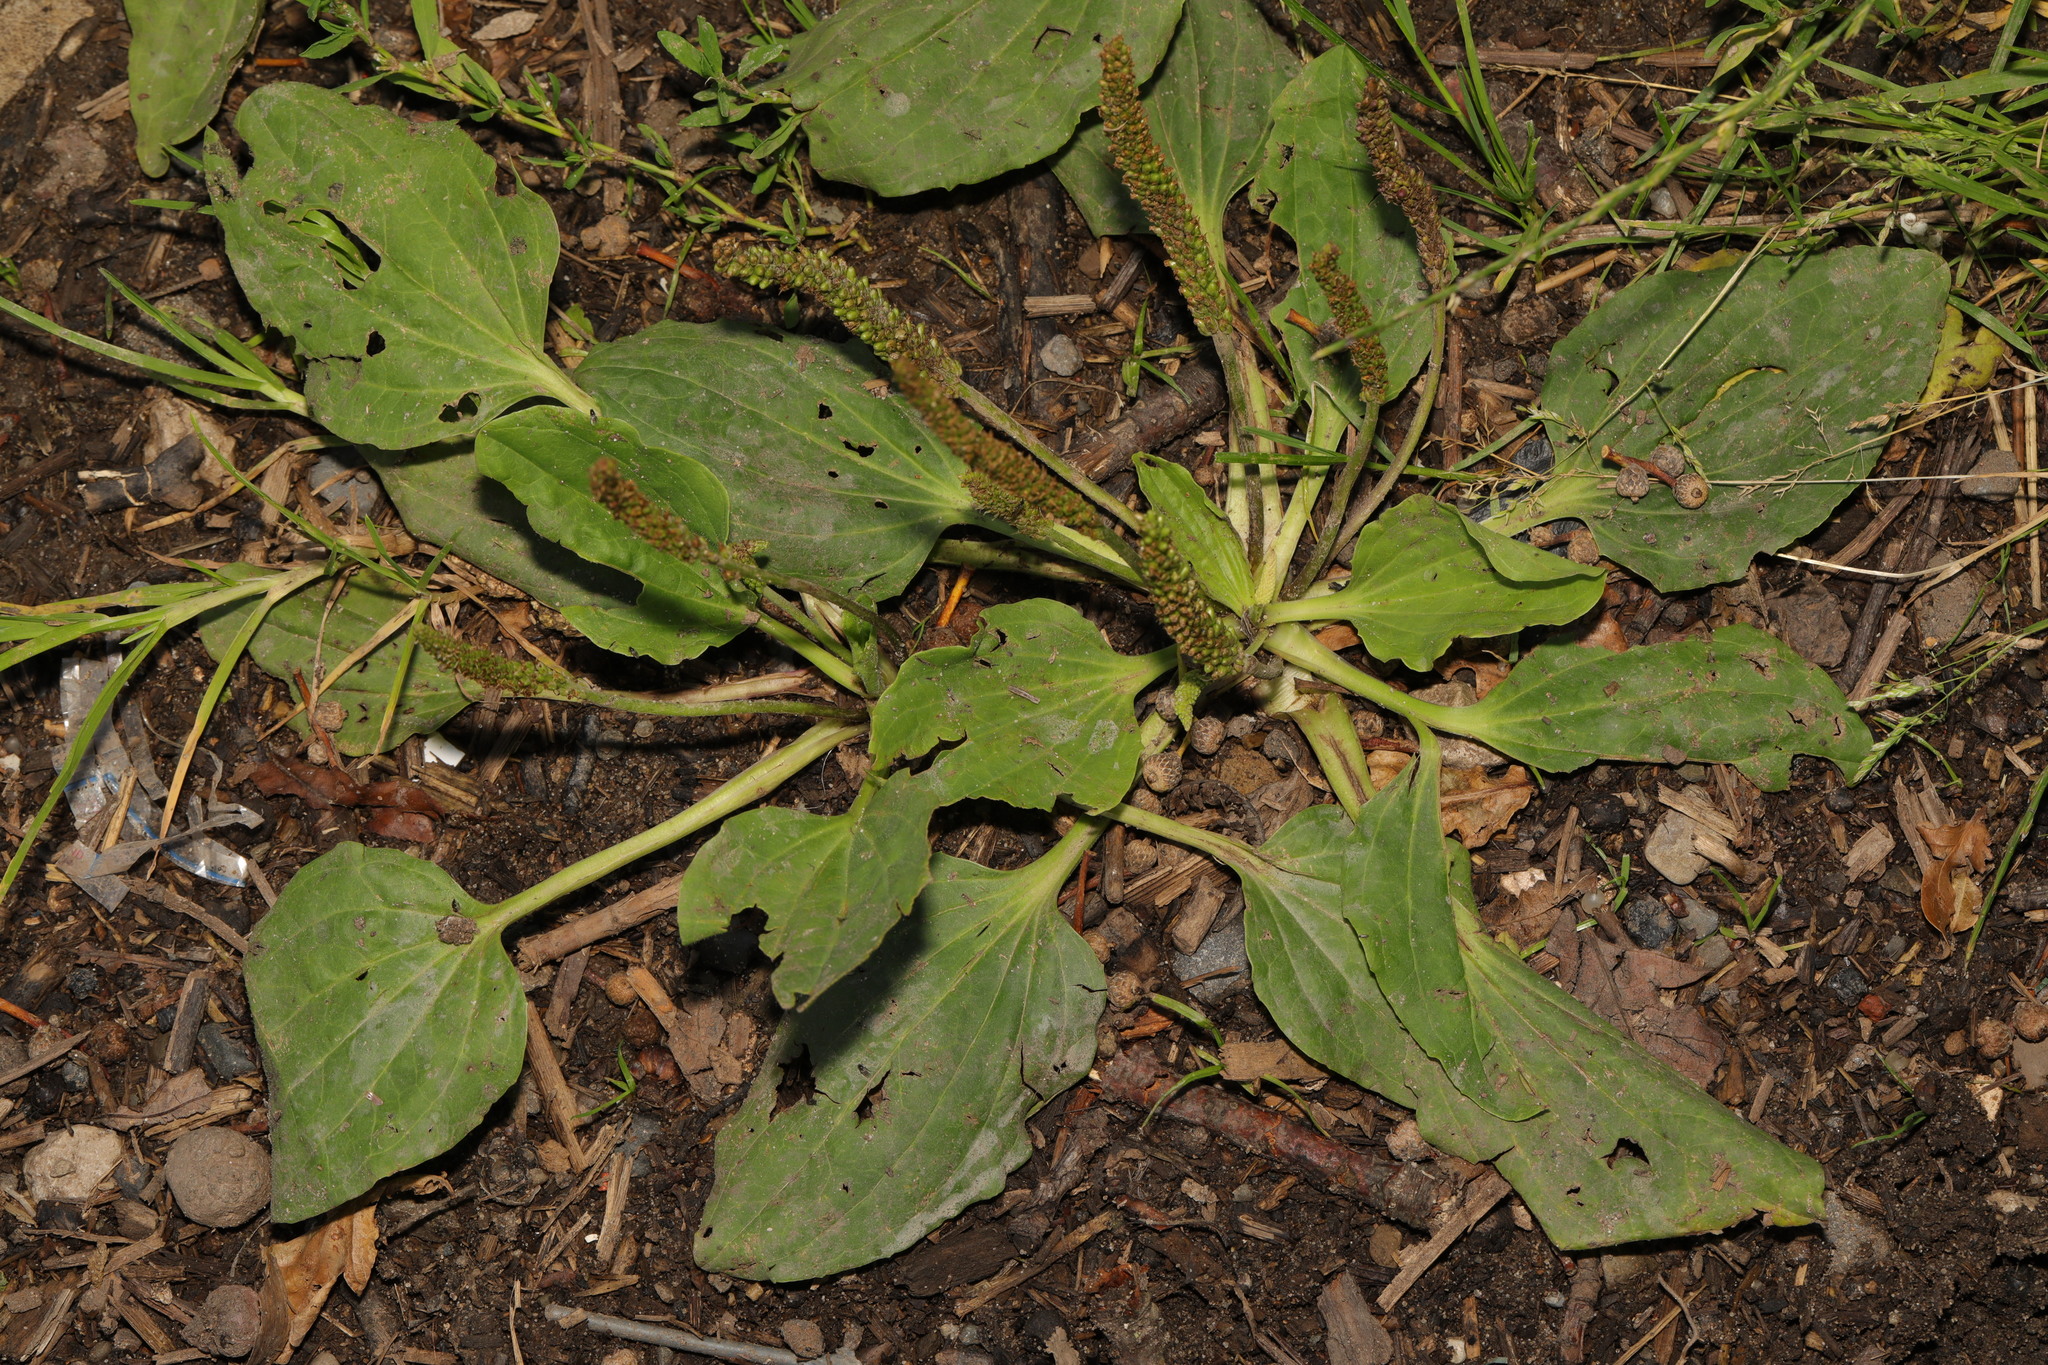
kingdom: Plantae
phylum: Tracheophyta
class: Magnoliopsida
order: Lamiales
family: Plantaginaceae
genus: Plantago
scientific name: Plantago major
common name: Common plantain
